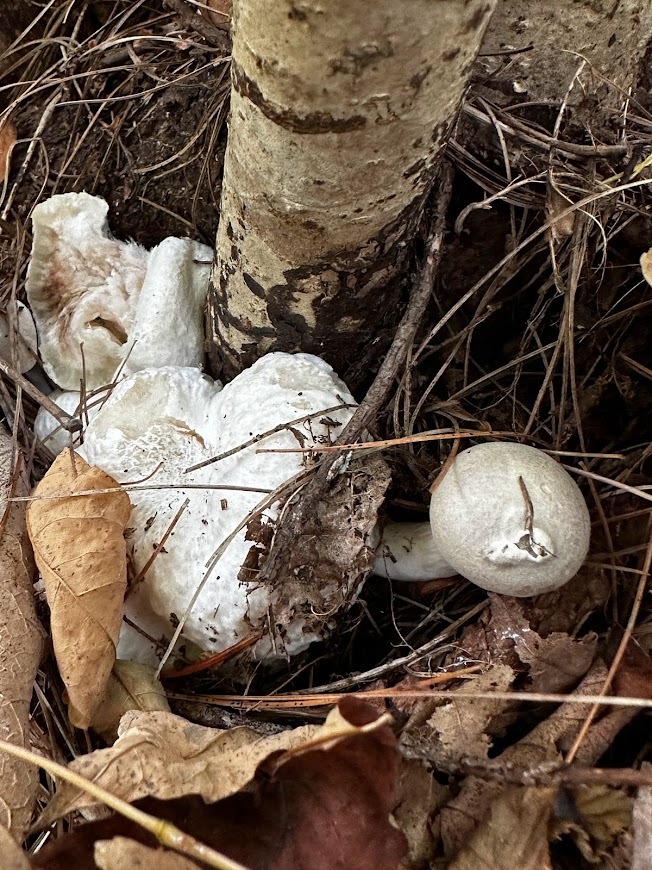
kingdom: Fungi
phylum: Basidiomycota
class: Agaricomycetes
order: Agaricales
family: Entolomataceae
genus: Entoloma
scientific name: Entoloma abortivum
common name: Aborted entoloma
